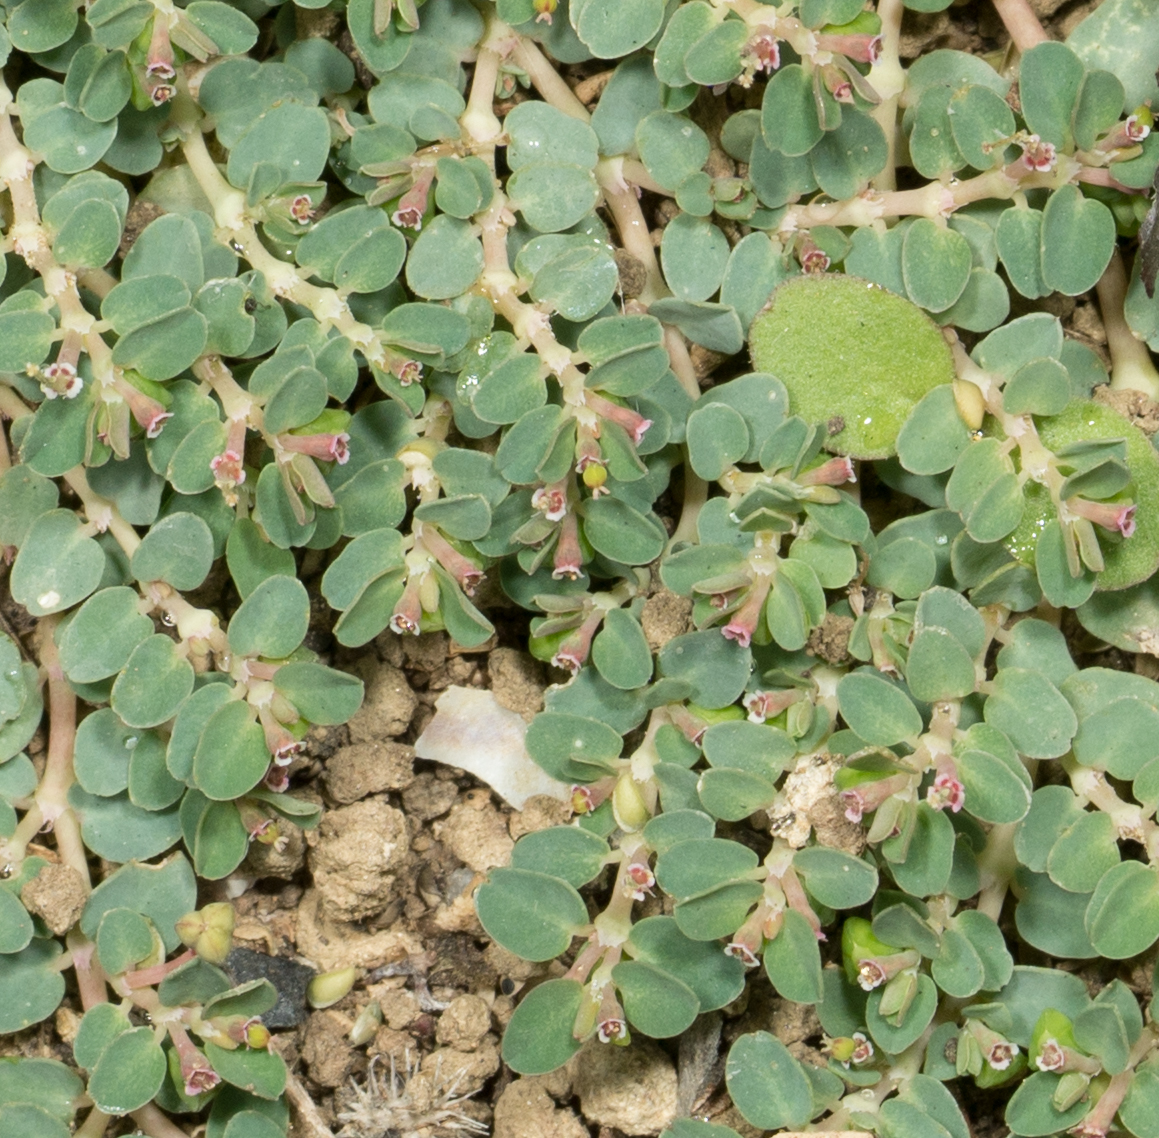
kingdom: Plantae
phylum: Tracheophyta
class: Magnoliopsida
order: Malpighiales
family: Euphorbiaceae
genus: Euphorbia
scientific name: Euphorbia serpens
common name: Matted sandmat
